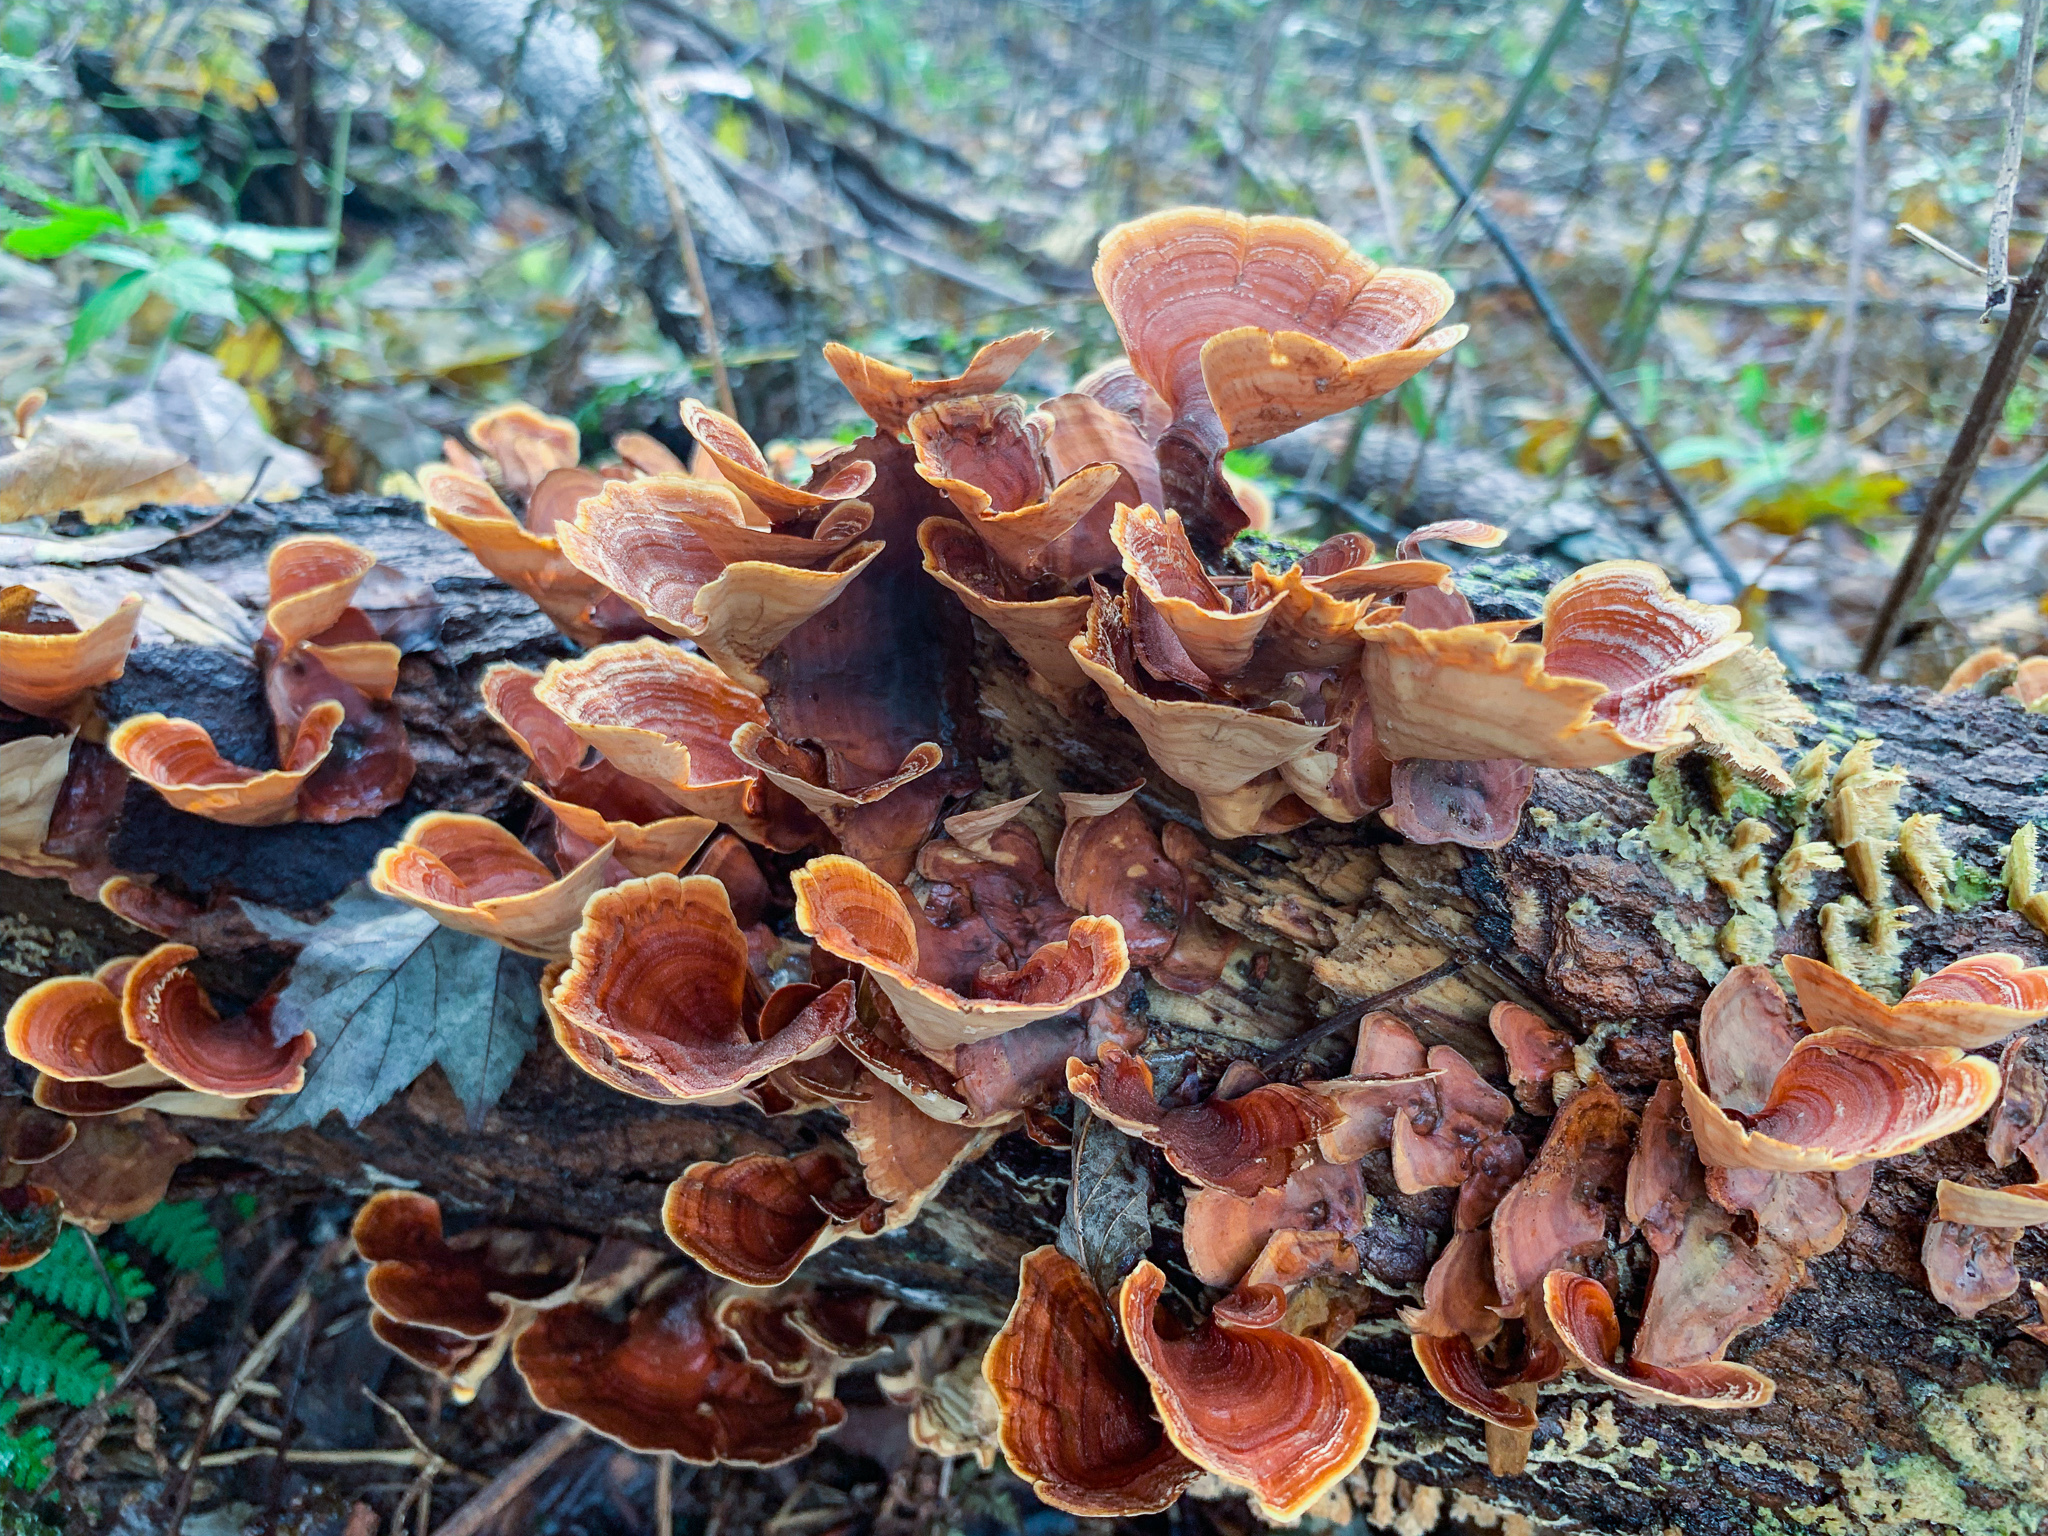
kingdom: Fungi
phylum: Basidiomycota
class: Agaricomycetes
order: Russulales
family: Stereaceae
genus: Stereum
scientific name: Stereum ostrea
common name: False turkeytail
